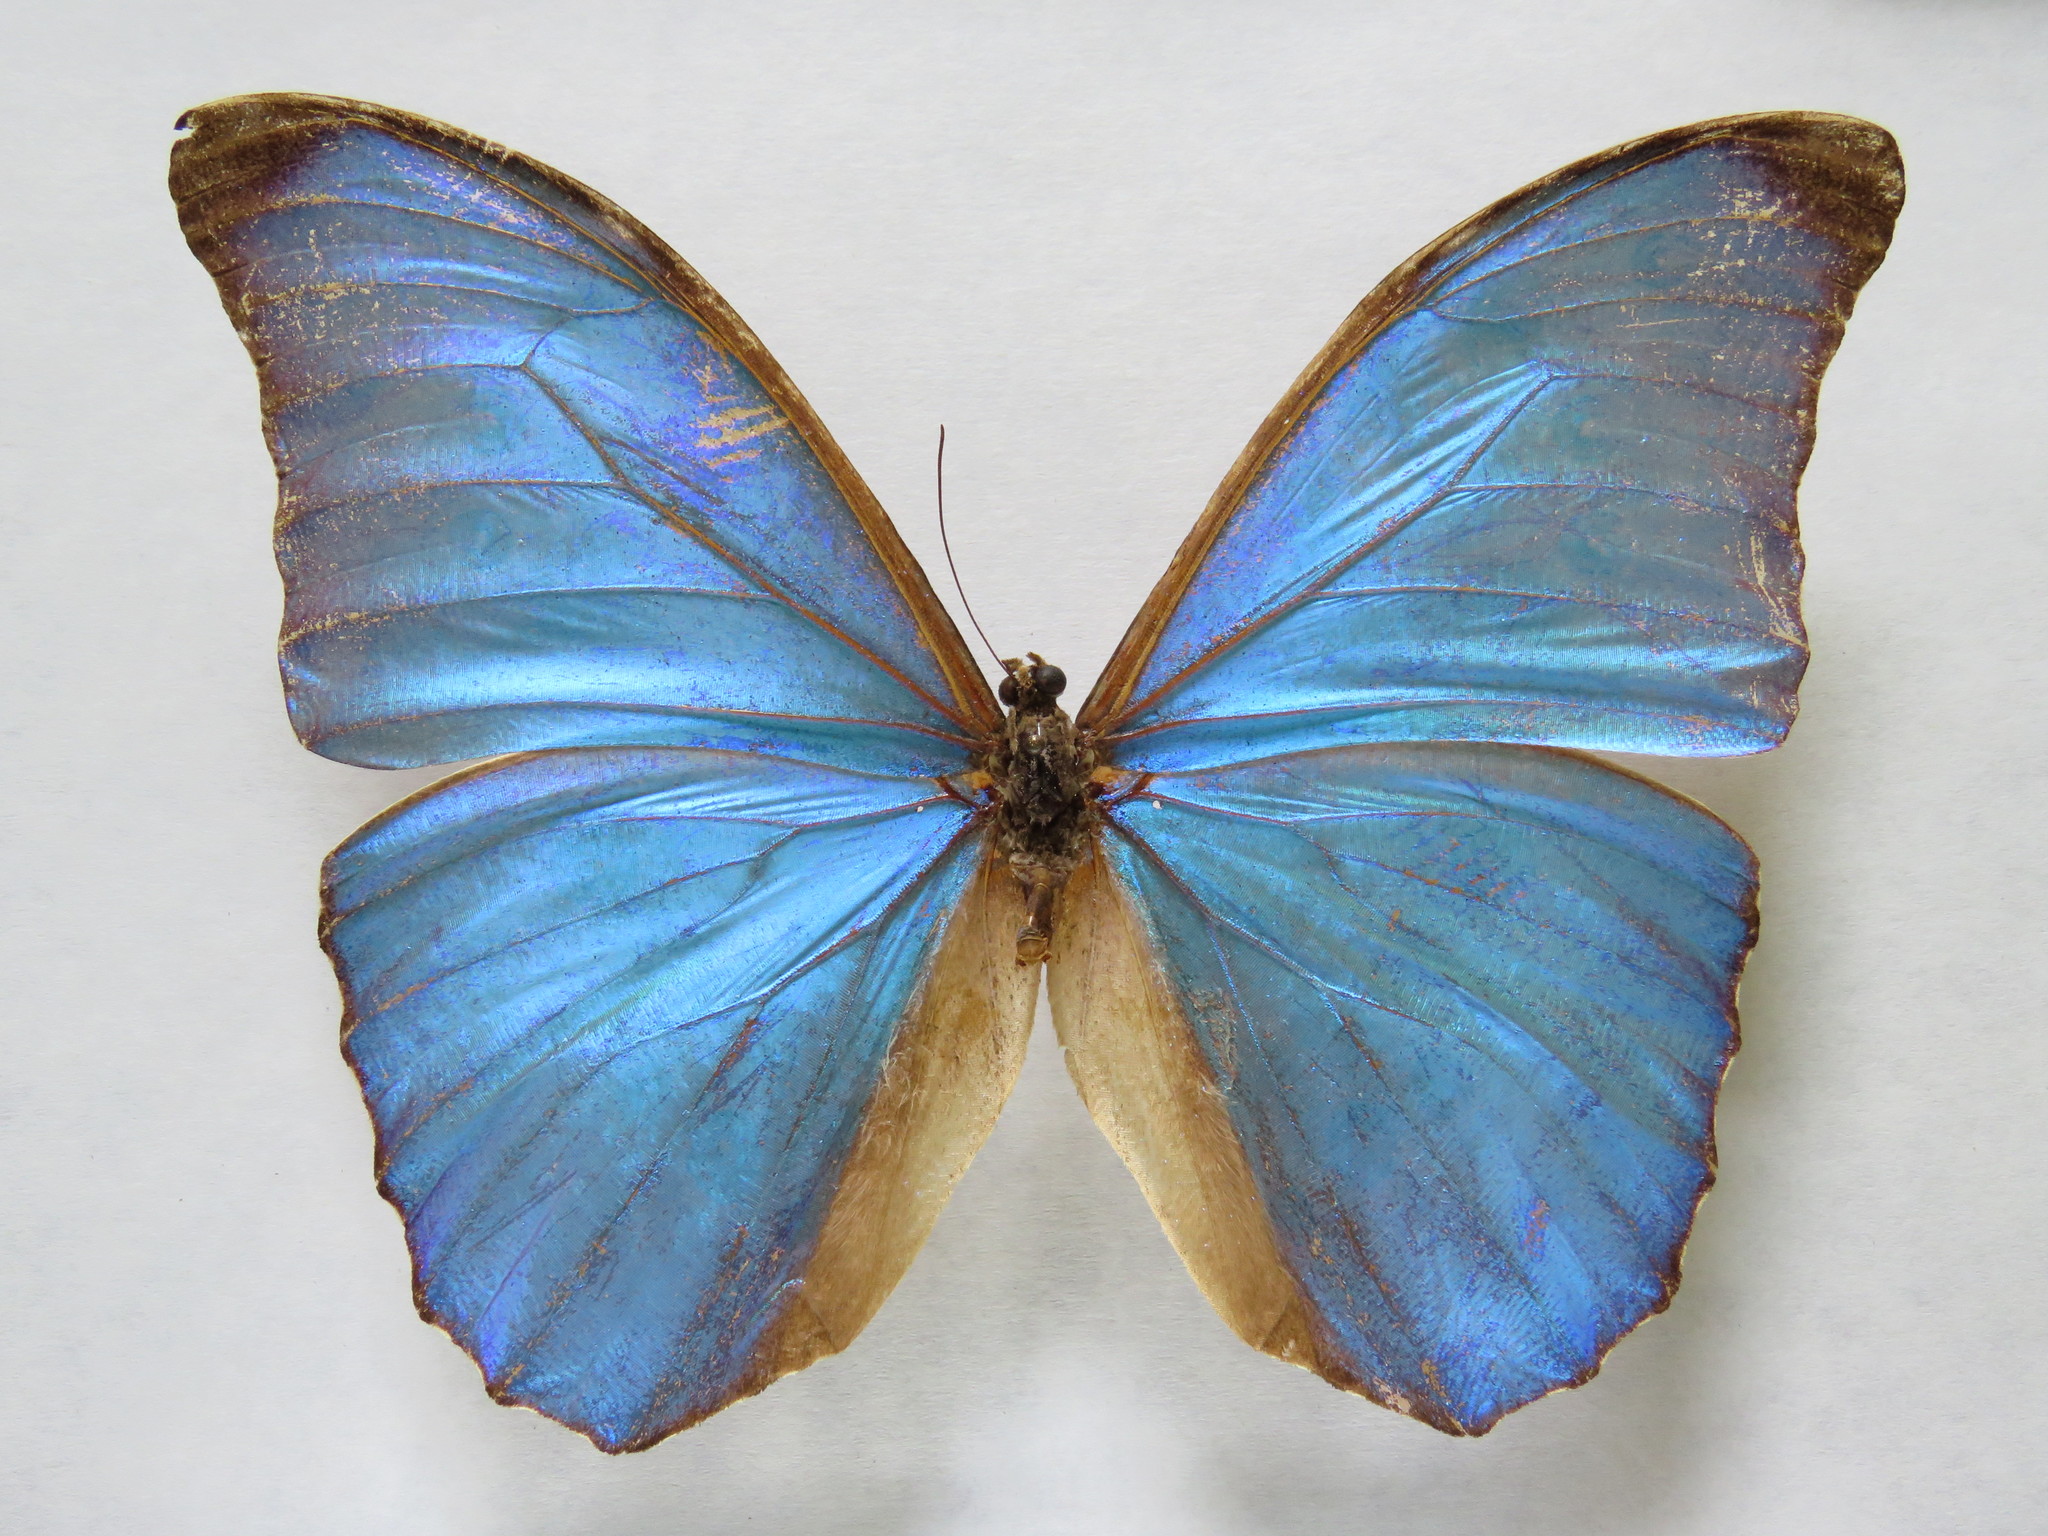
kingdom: Animalia
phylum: Arthropoda
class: Insecta
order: Lepidoptera
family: Nymphalidae
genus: Morpho
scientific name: Morpho amathonte
